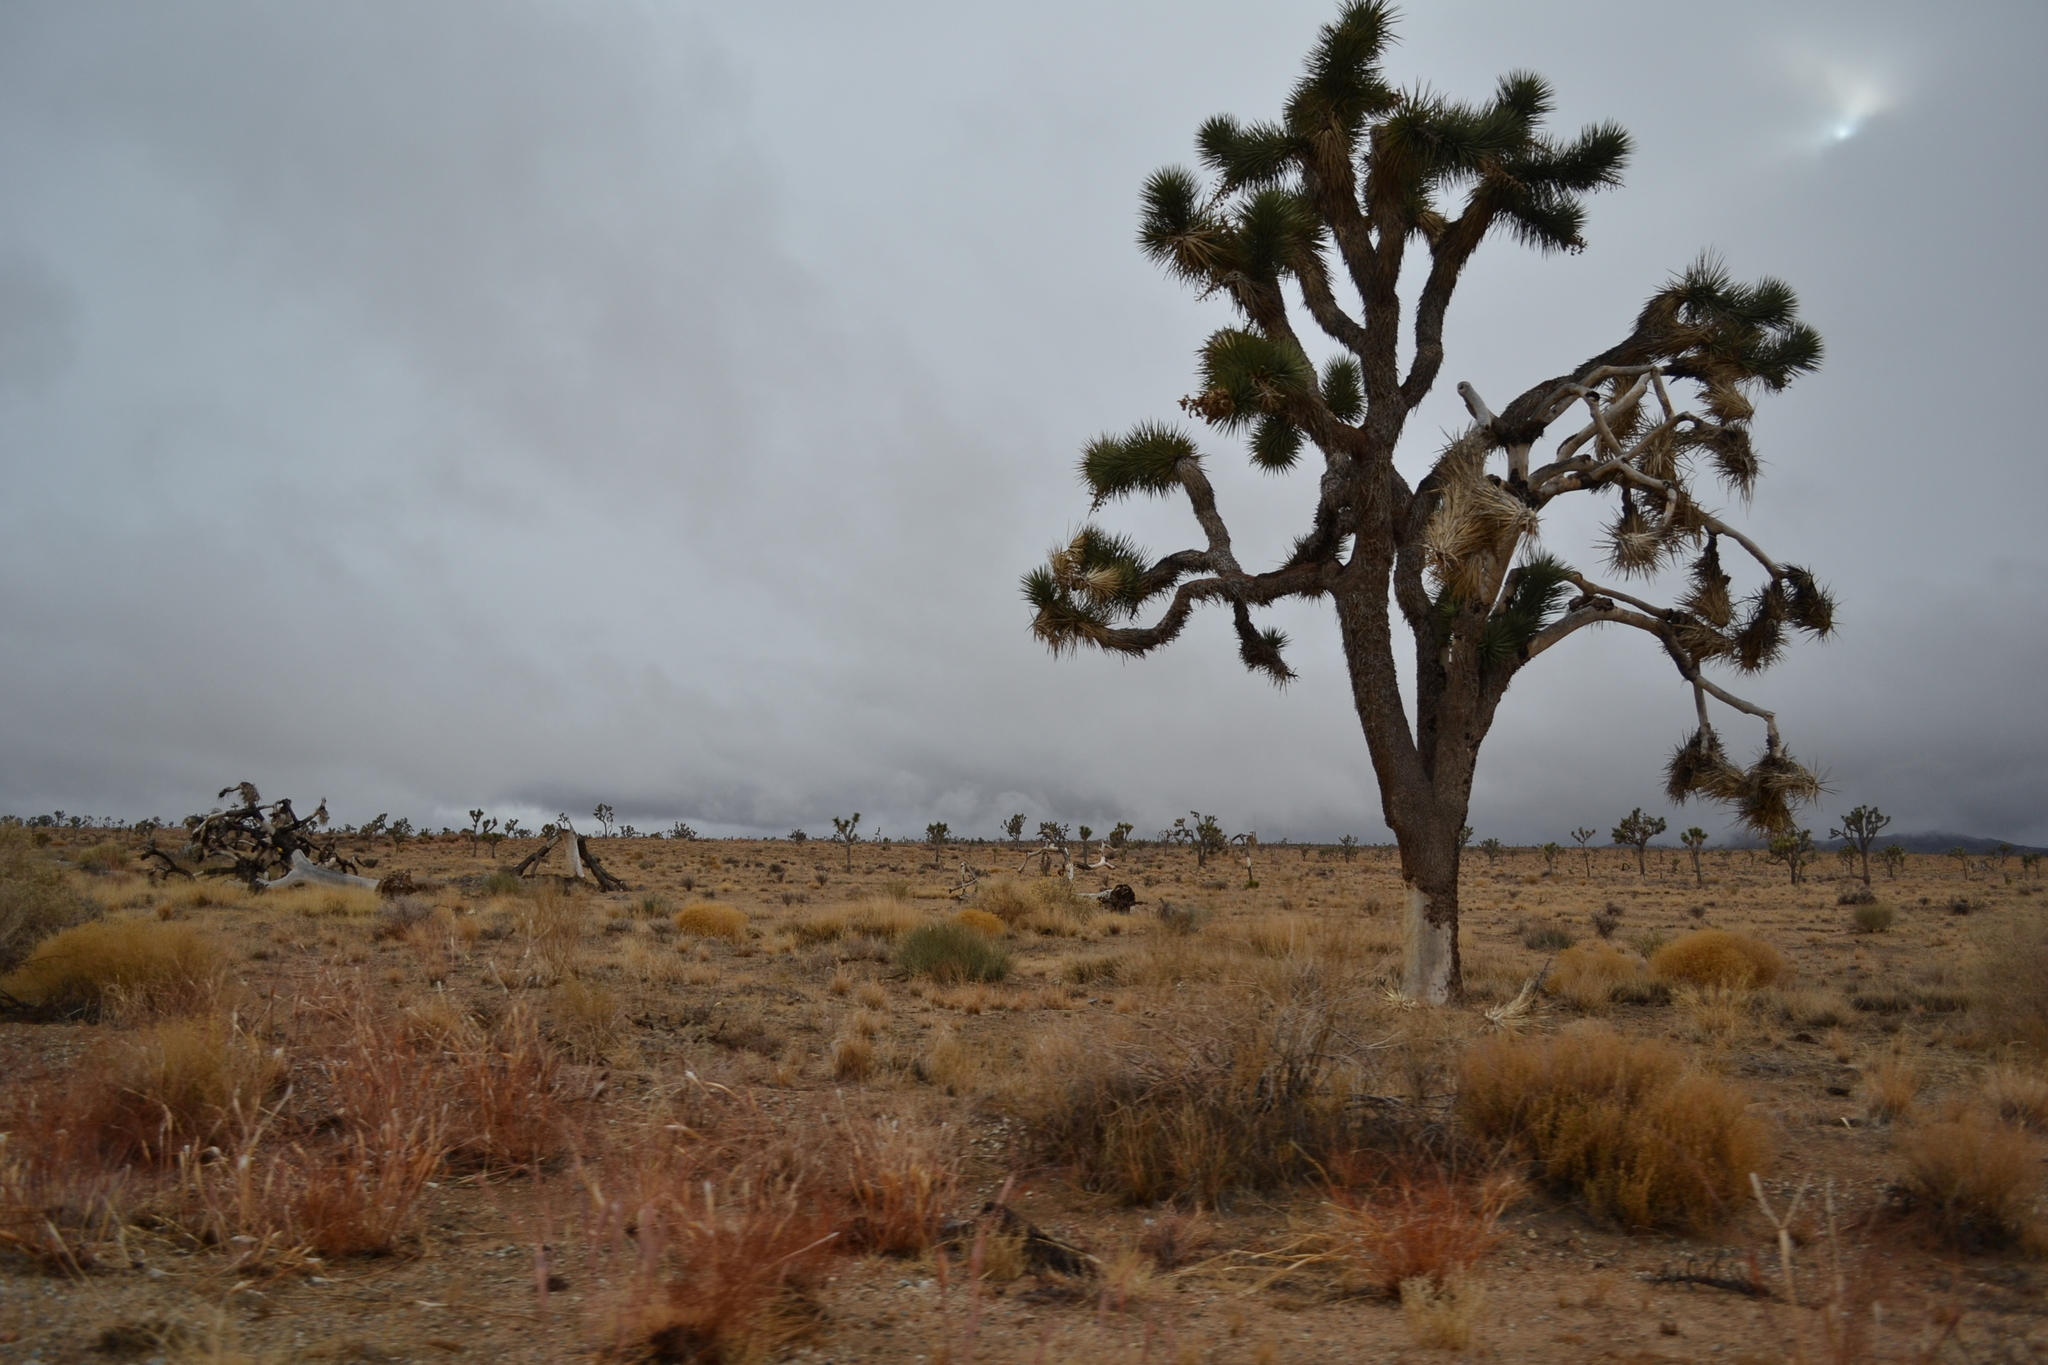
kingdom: Plantae
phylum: Tracheophyta
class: Liliopsida
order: Asparagales
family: Asparagaceae
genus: Yucca
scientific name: Yucca brevifolia
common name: Joshua tree
